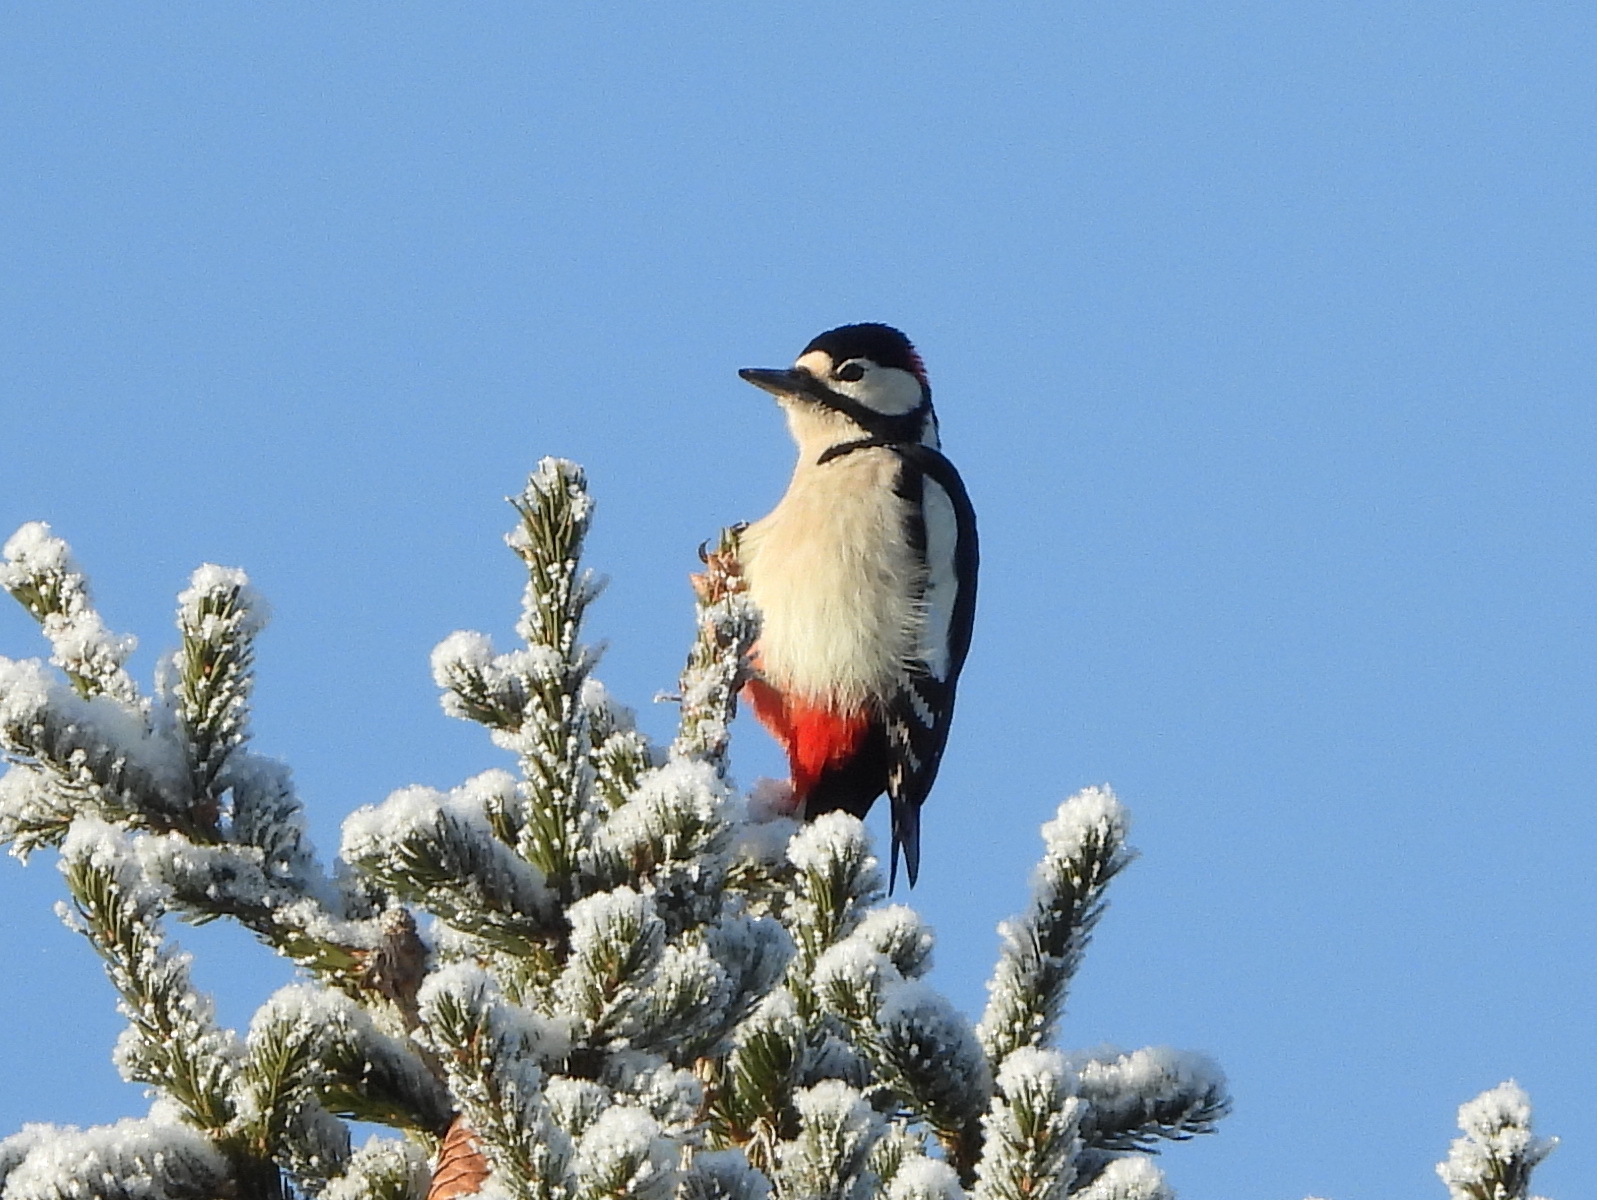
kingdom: Animalia
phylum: Chordata
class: Aves
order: Piciformes
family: Picidae
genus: Dendrocopos
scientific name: Dendrocopos major
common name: Great spotted woodpecker
